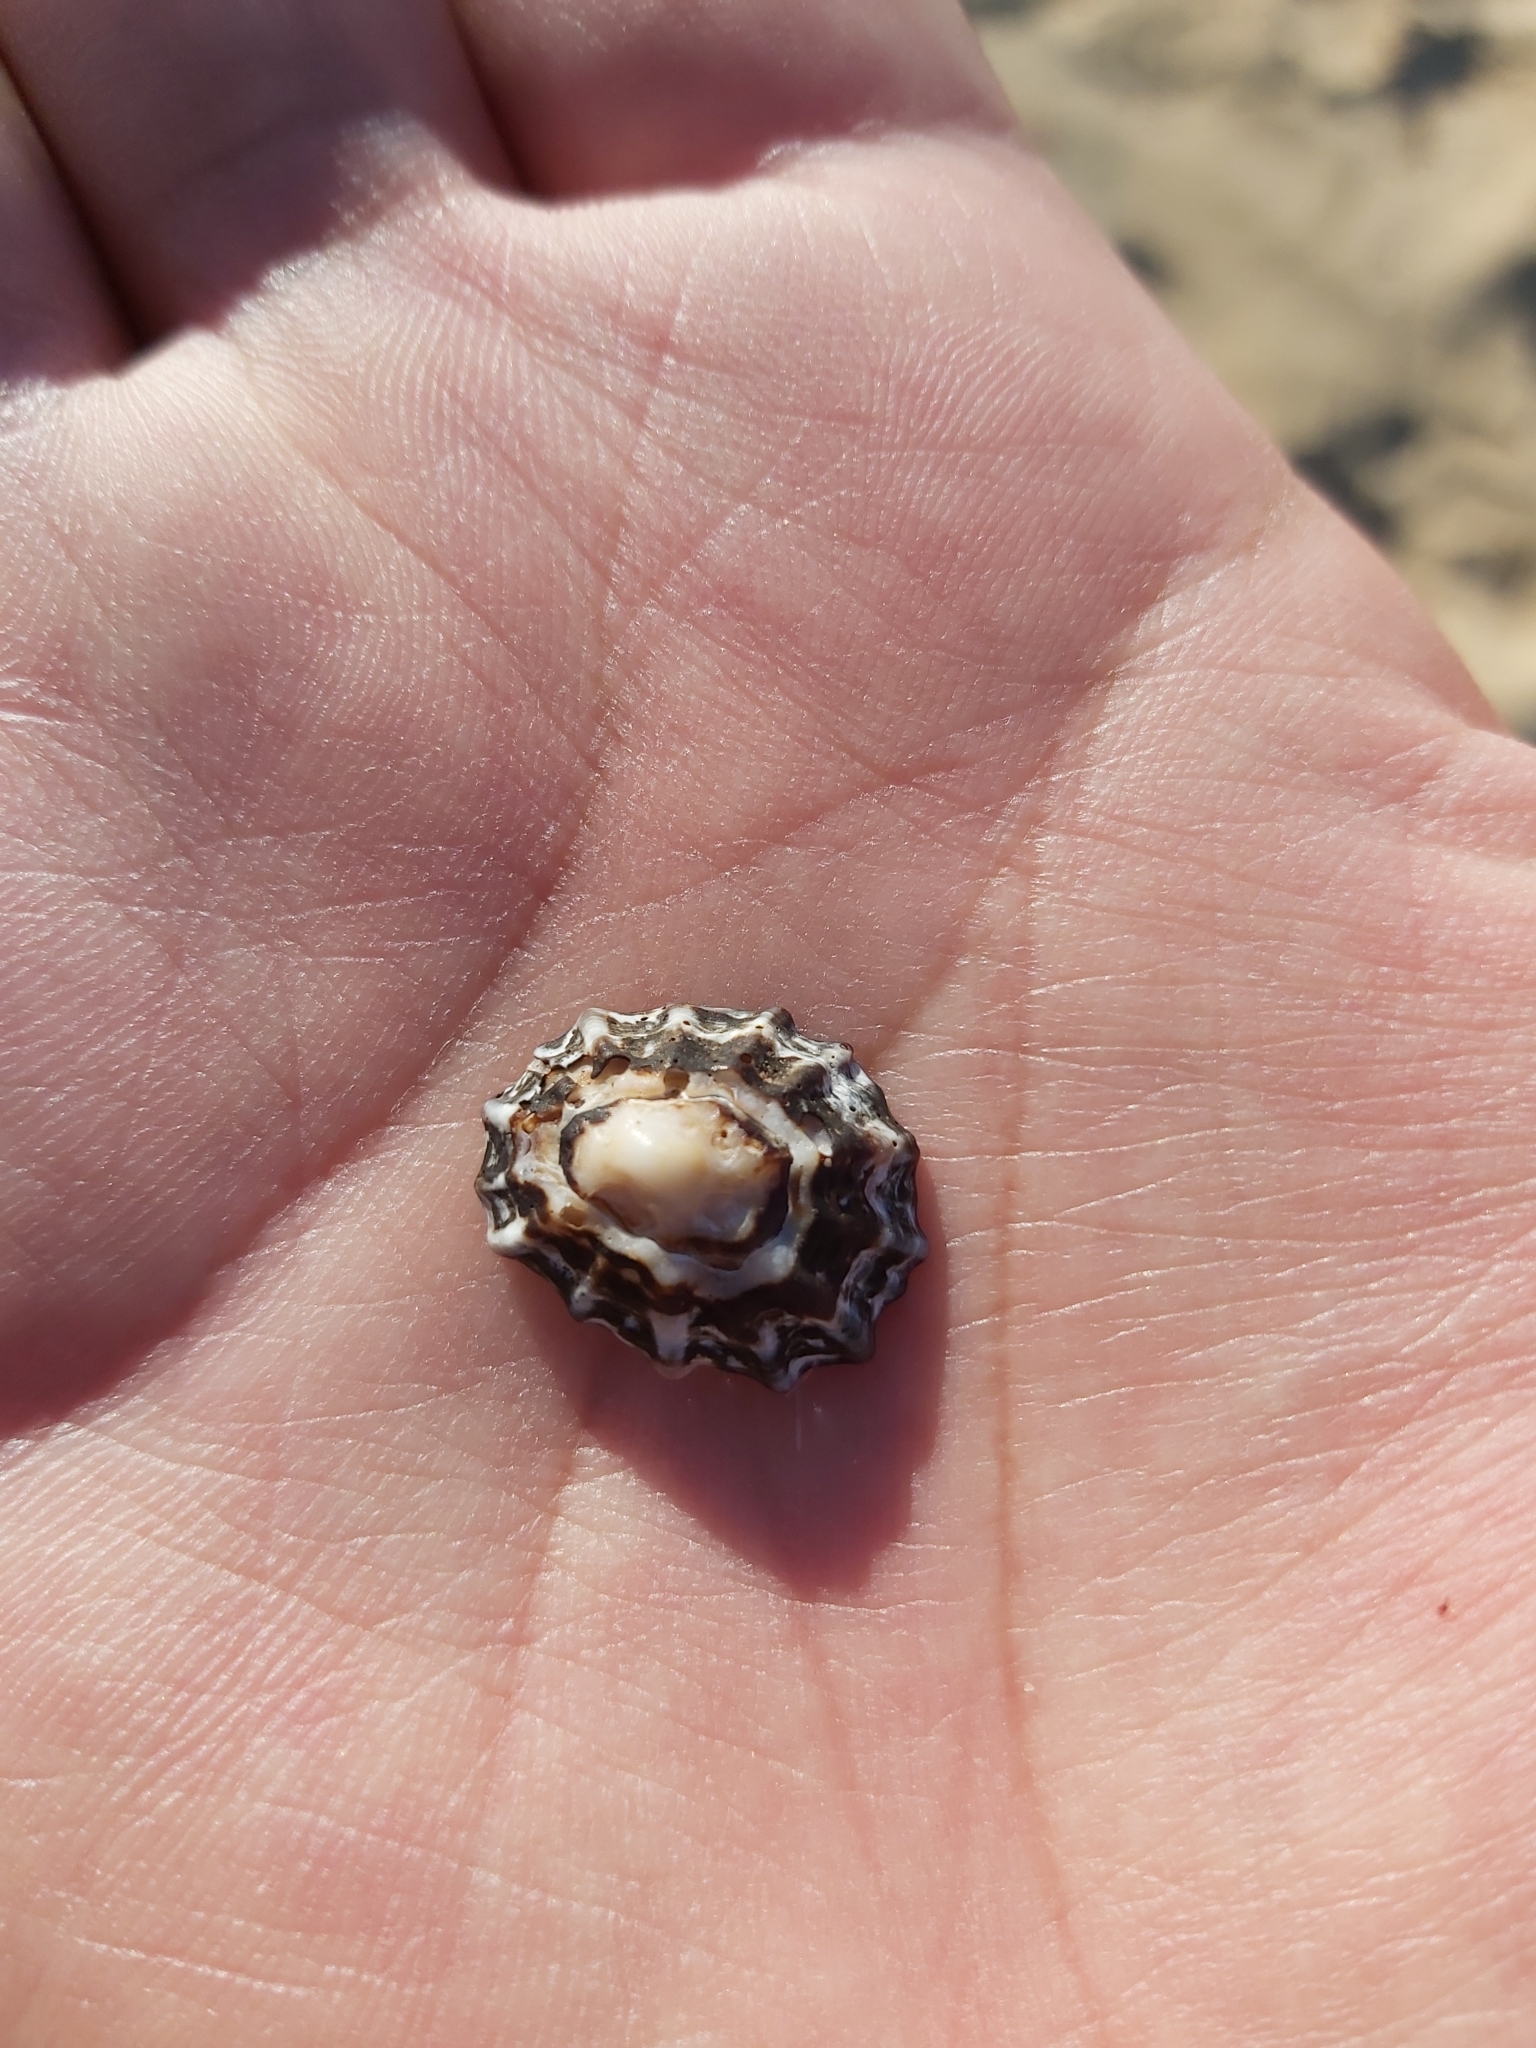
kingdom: Animalia
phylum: Mollusca
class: Gastropoda
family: Lottiidae
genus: Patelloida
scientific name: Patelloida alticostata
